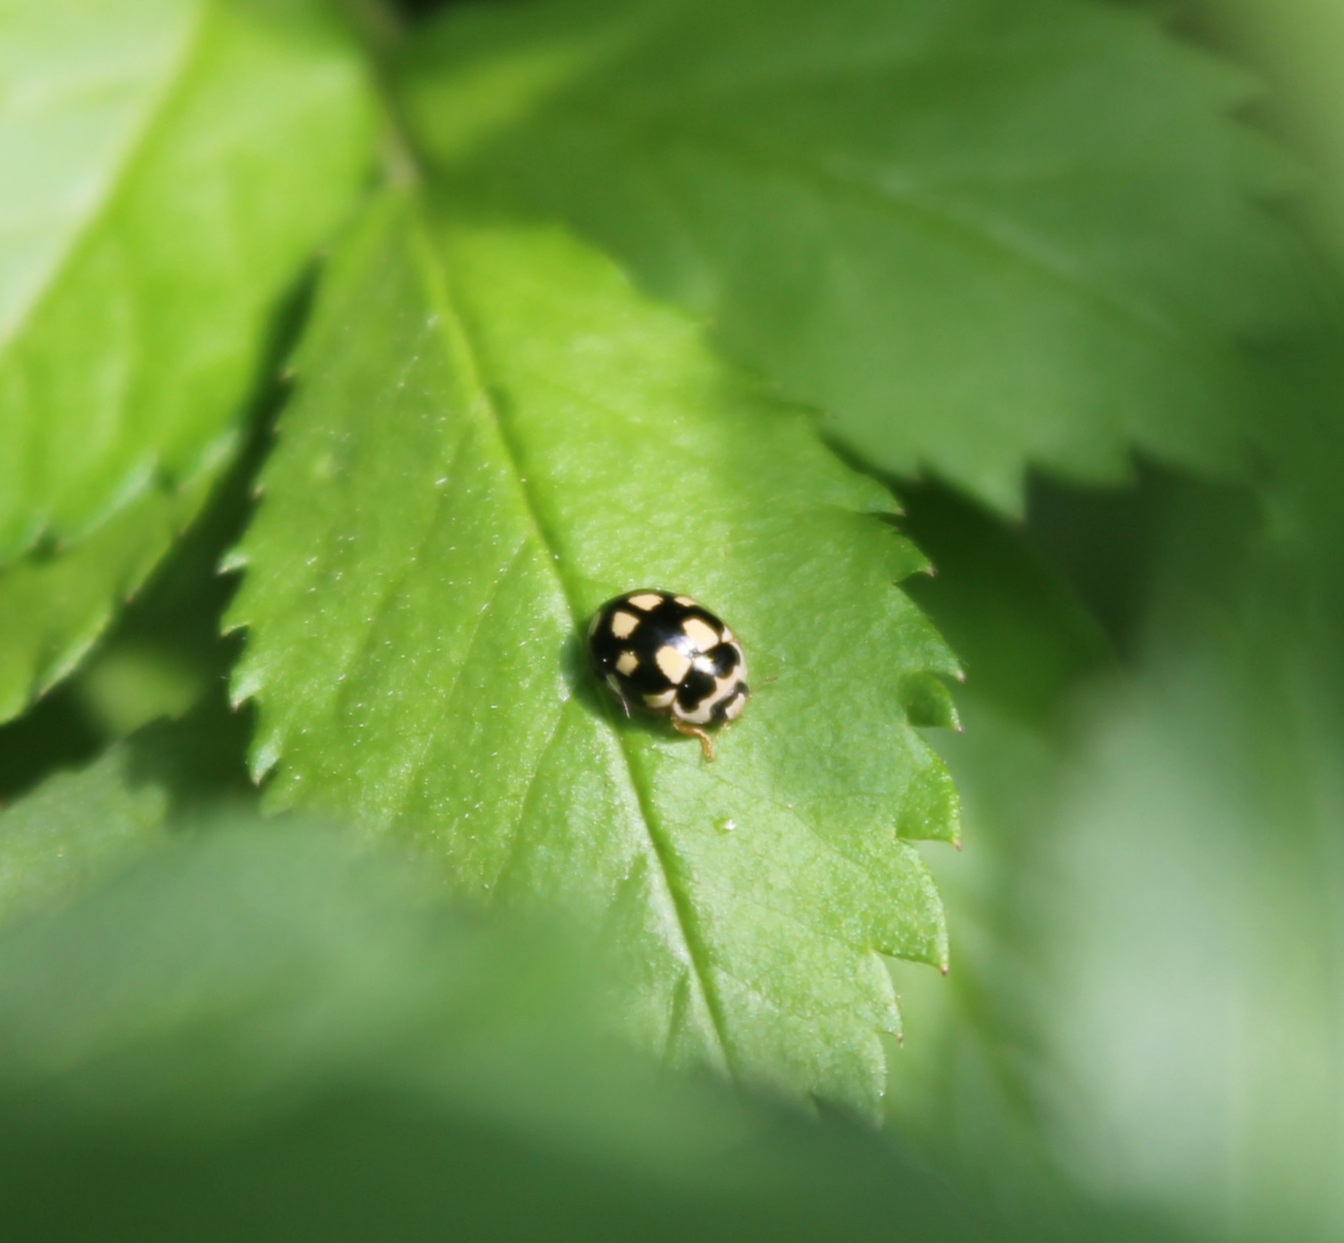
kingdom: Animalia
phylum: Arthropoda
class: Insecta
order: Coleoptera
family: Coccinellidae
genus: Propylaea
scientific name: Propylaea quatuordecimpunctata
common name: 14-spotted ladybird beetle
